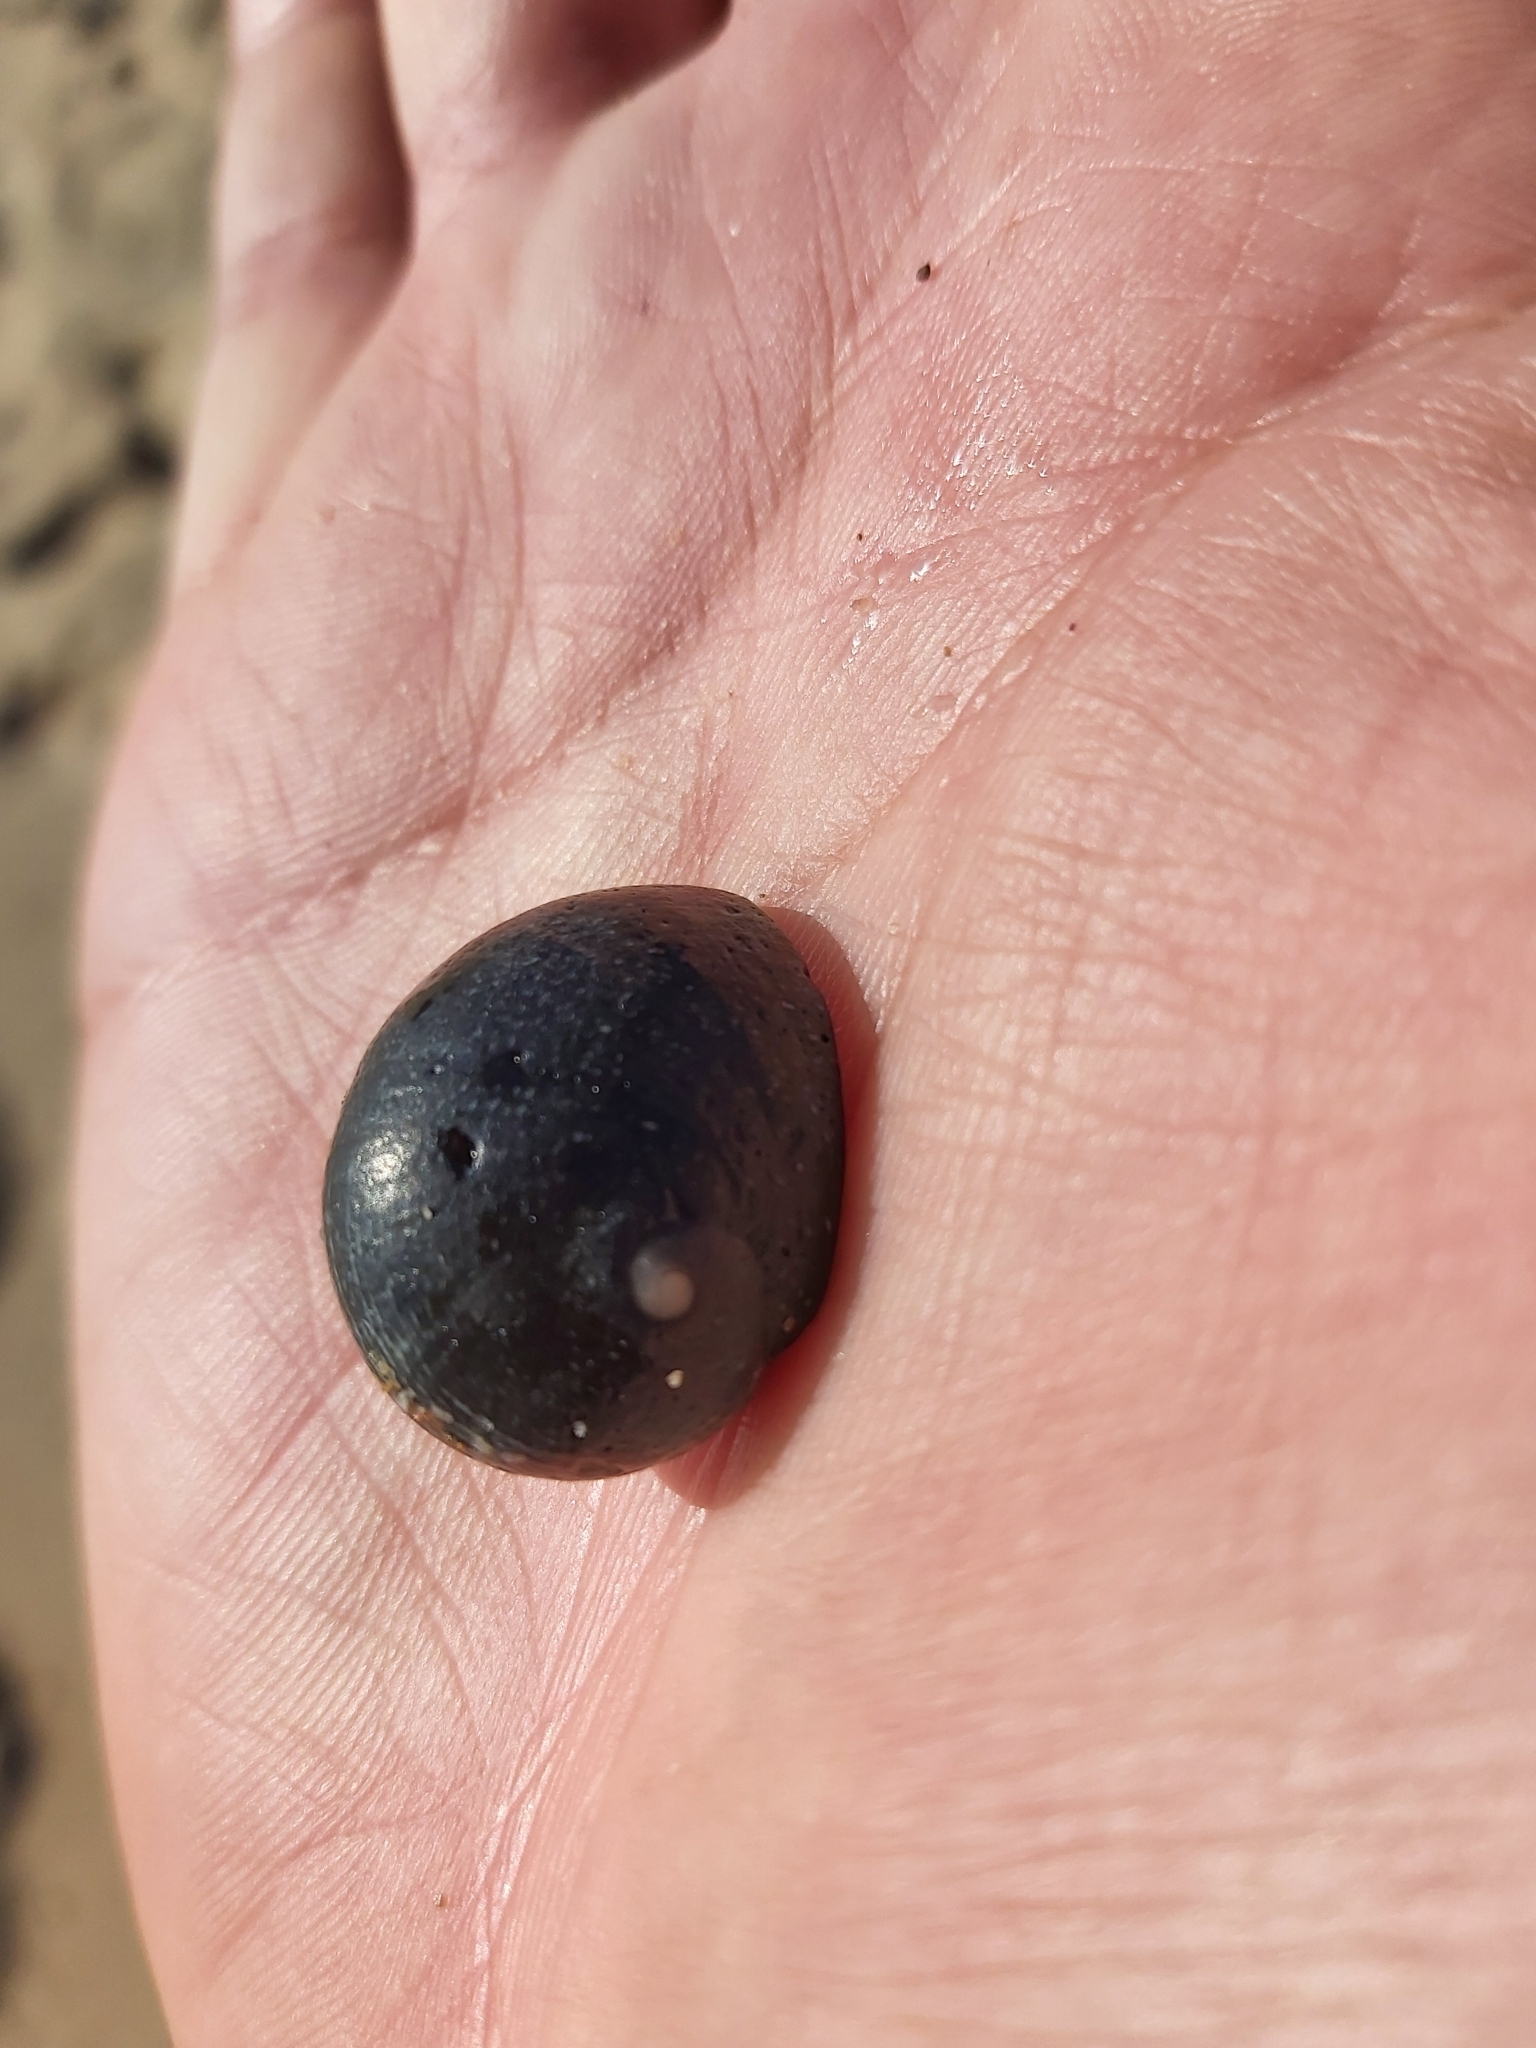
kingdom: Animalia
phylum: Mollusca
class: Gastropoda
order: Cycloneritida
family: Neritidae
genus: Nerita
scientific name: Nerita melanotragus
